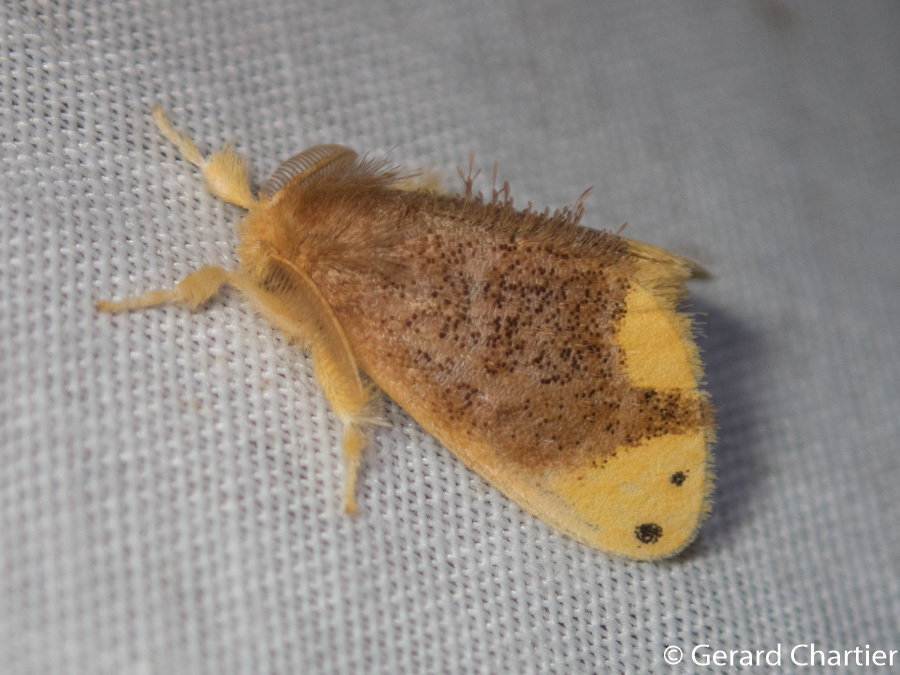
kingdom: Animalia
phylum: Arthropoda
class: Insecta
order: Lepidoptera
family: Erebidae
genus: Arna
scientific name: Arna bipunctapex
